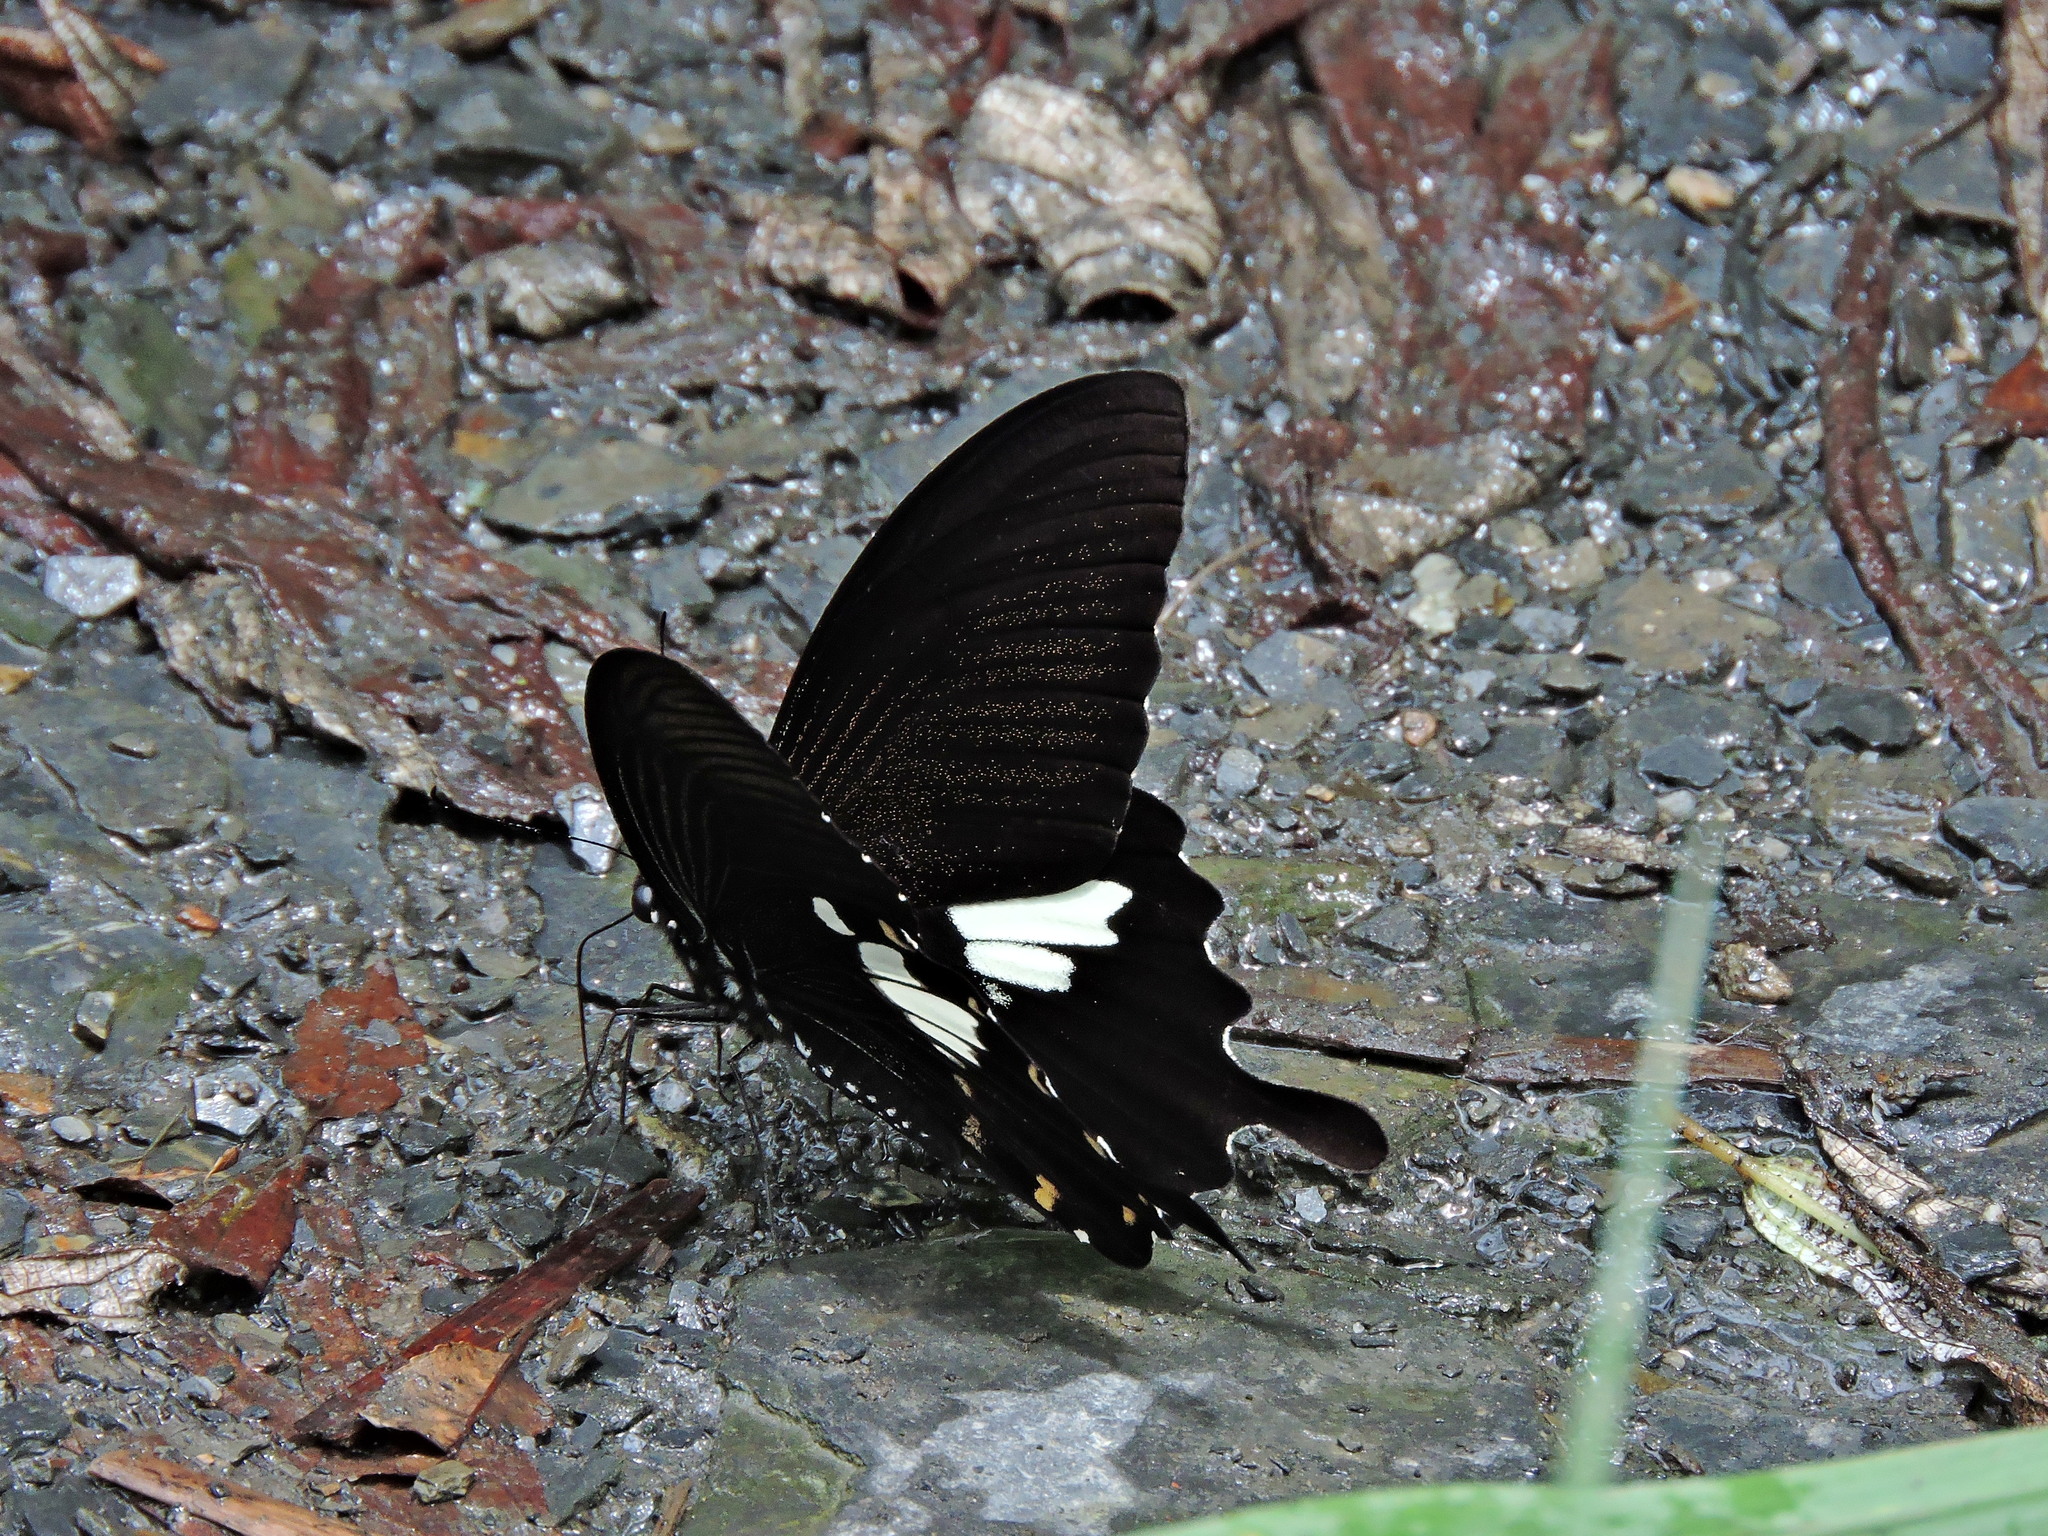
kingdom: Animalia
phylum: Arthropoda
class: Insecta
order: Lepidoptera
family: Papilionidae
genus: Papilio
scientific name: Papilio nephelus
